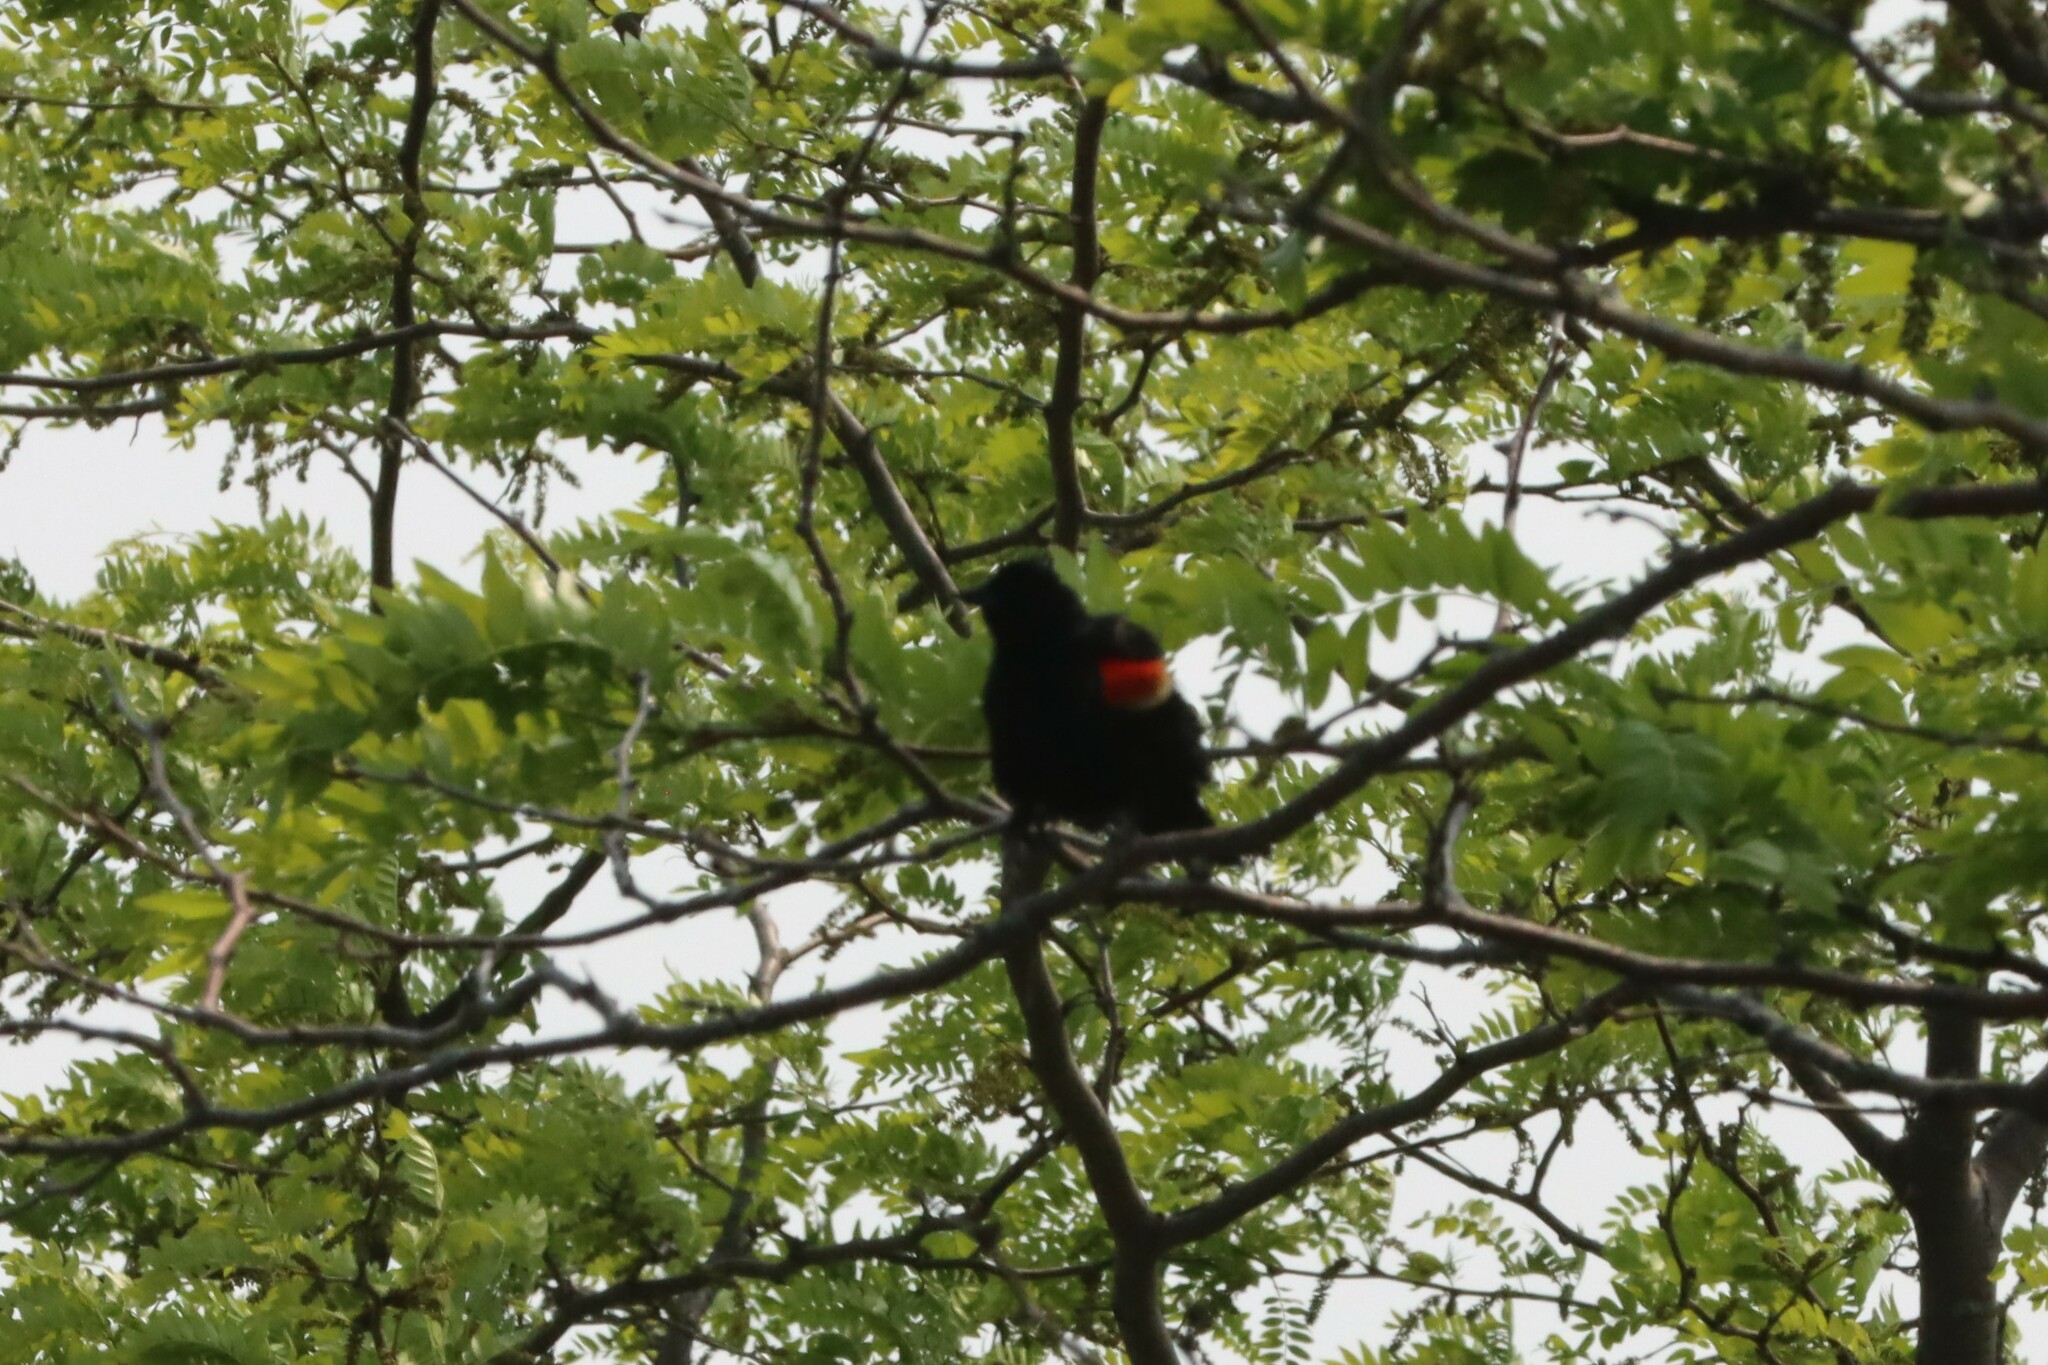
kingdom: Animalia
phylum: Chordata
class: Aves
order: Passeriformes
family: Icteridae
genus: Agelaius
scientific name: Agelaius phoeniceus
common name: Red-winged blackbird
